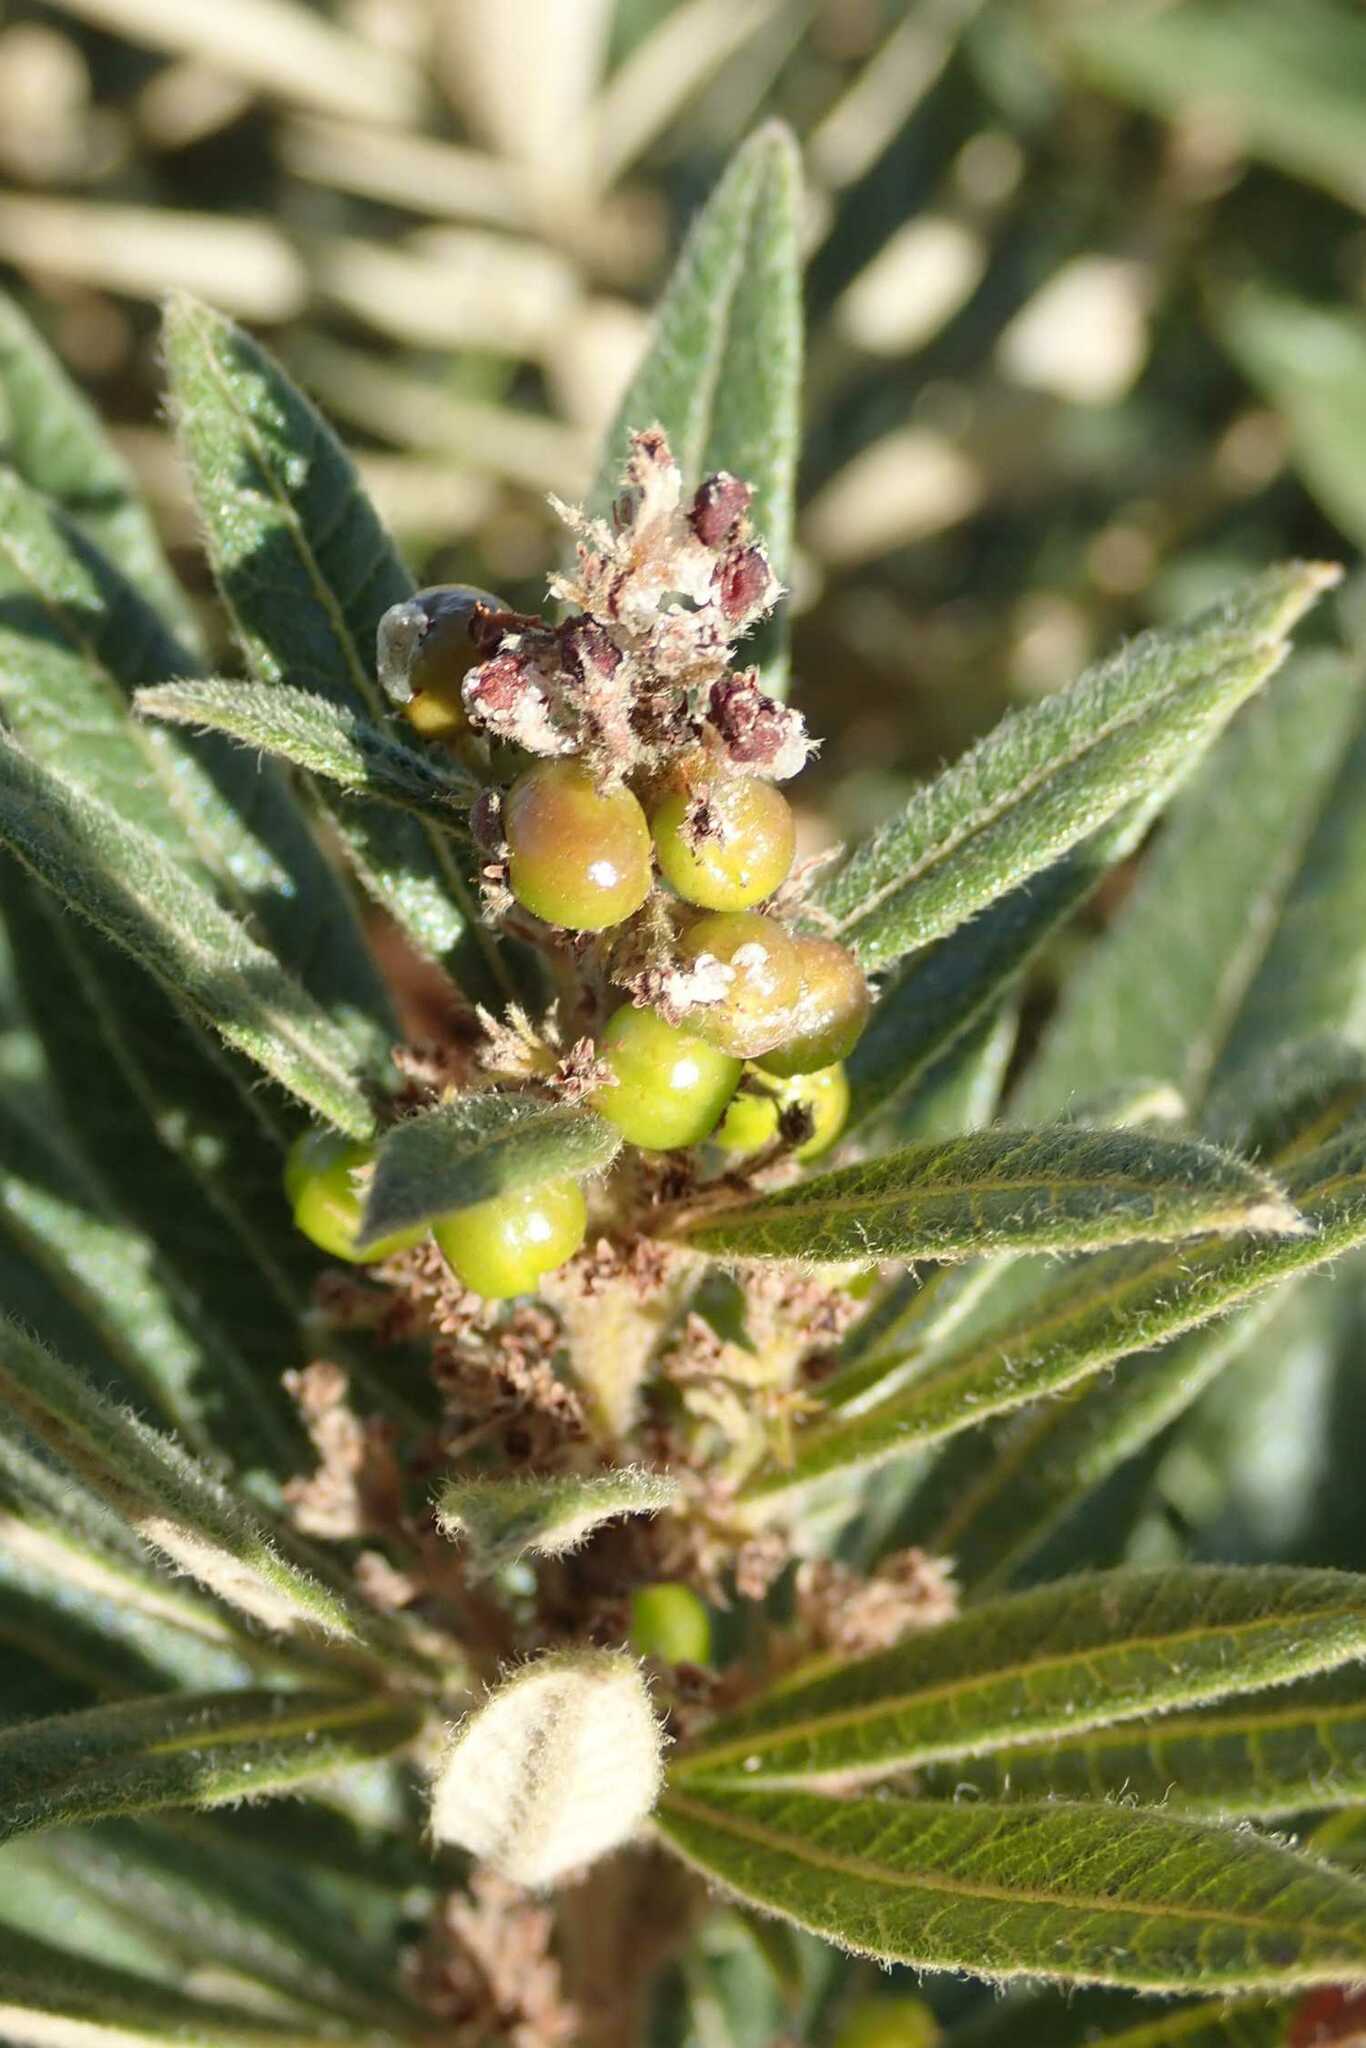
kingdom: Plantae
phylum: Tracheophyta
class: Magnoliopsida
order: Sapindales
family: Anacardiaceae
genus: Searsia
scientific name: Searsia discolor
